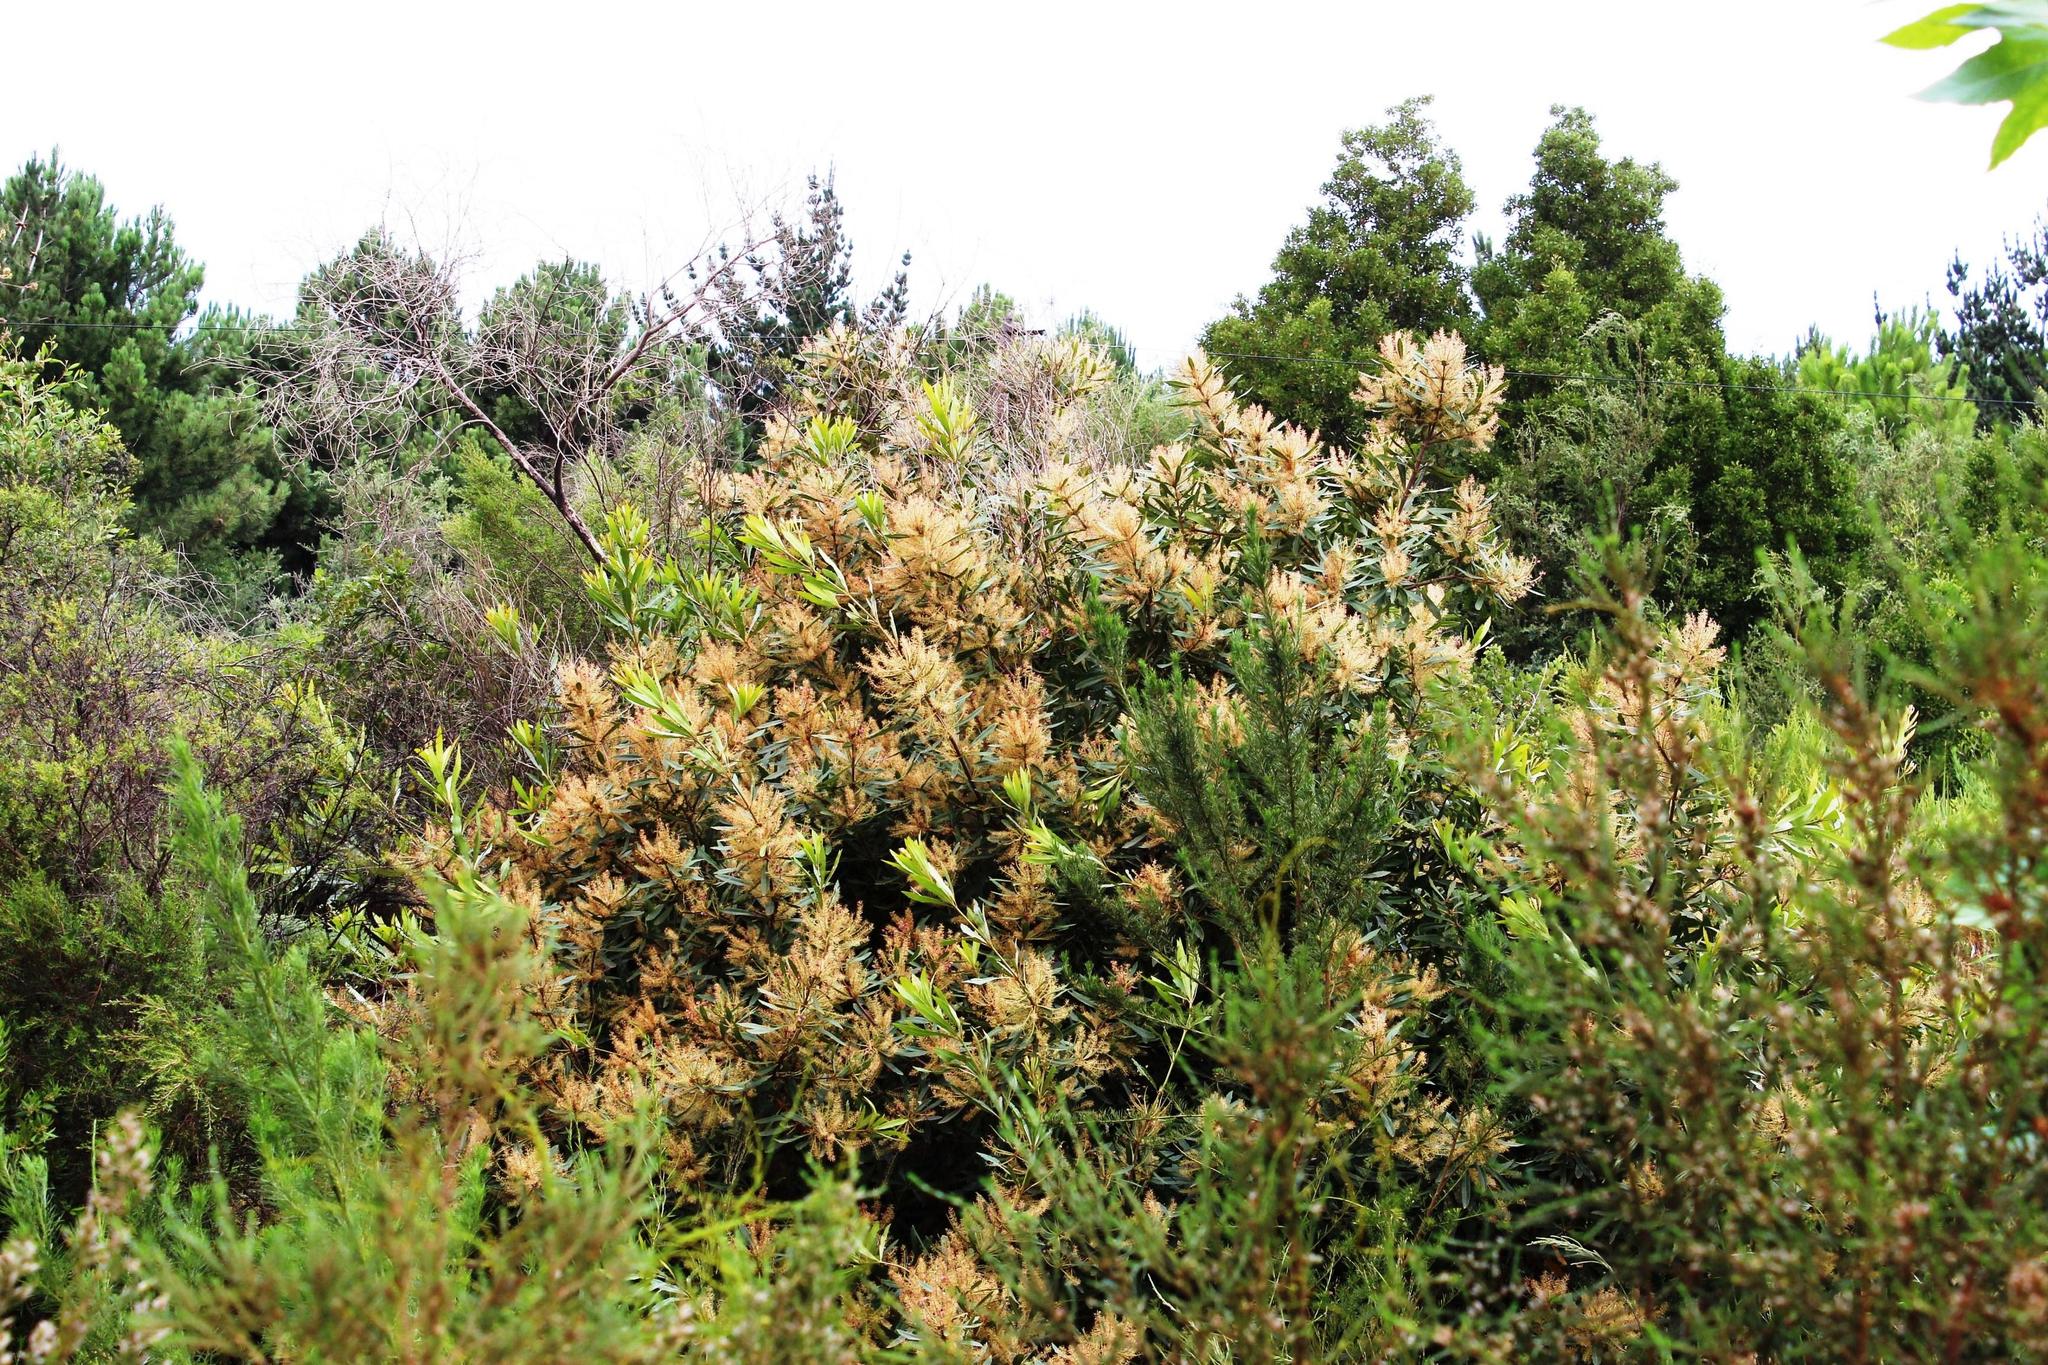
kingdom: Plantae
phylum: Tracheophyta
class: Magnoliopsida
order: Proteales
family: Proteaceae
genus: Brabejum
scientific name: Brabejum stellatifolium
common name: Wild almond
